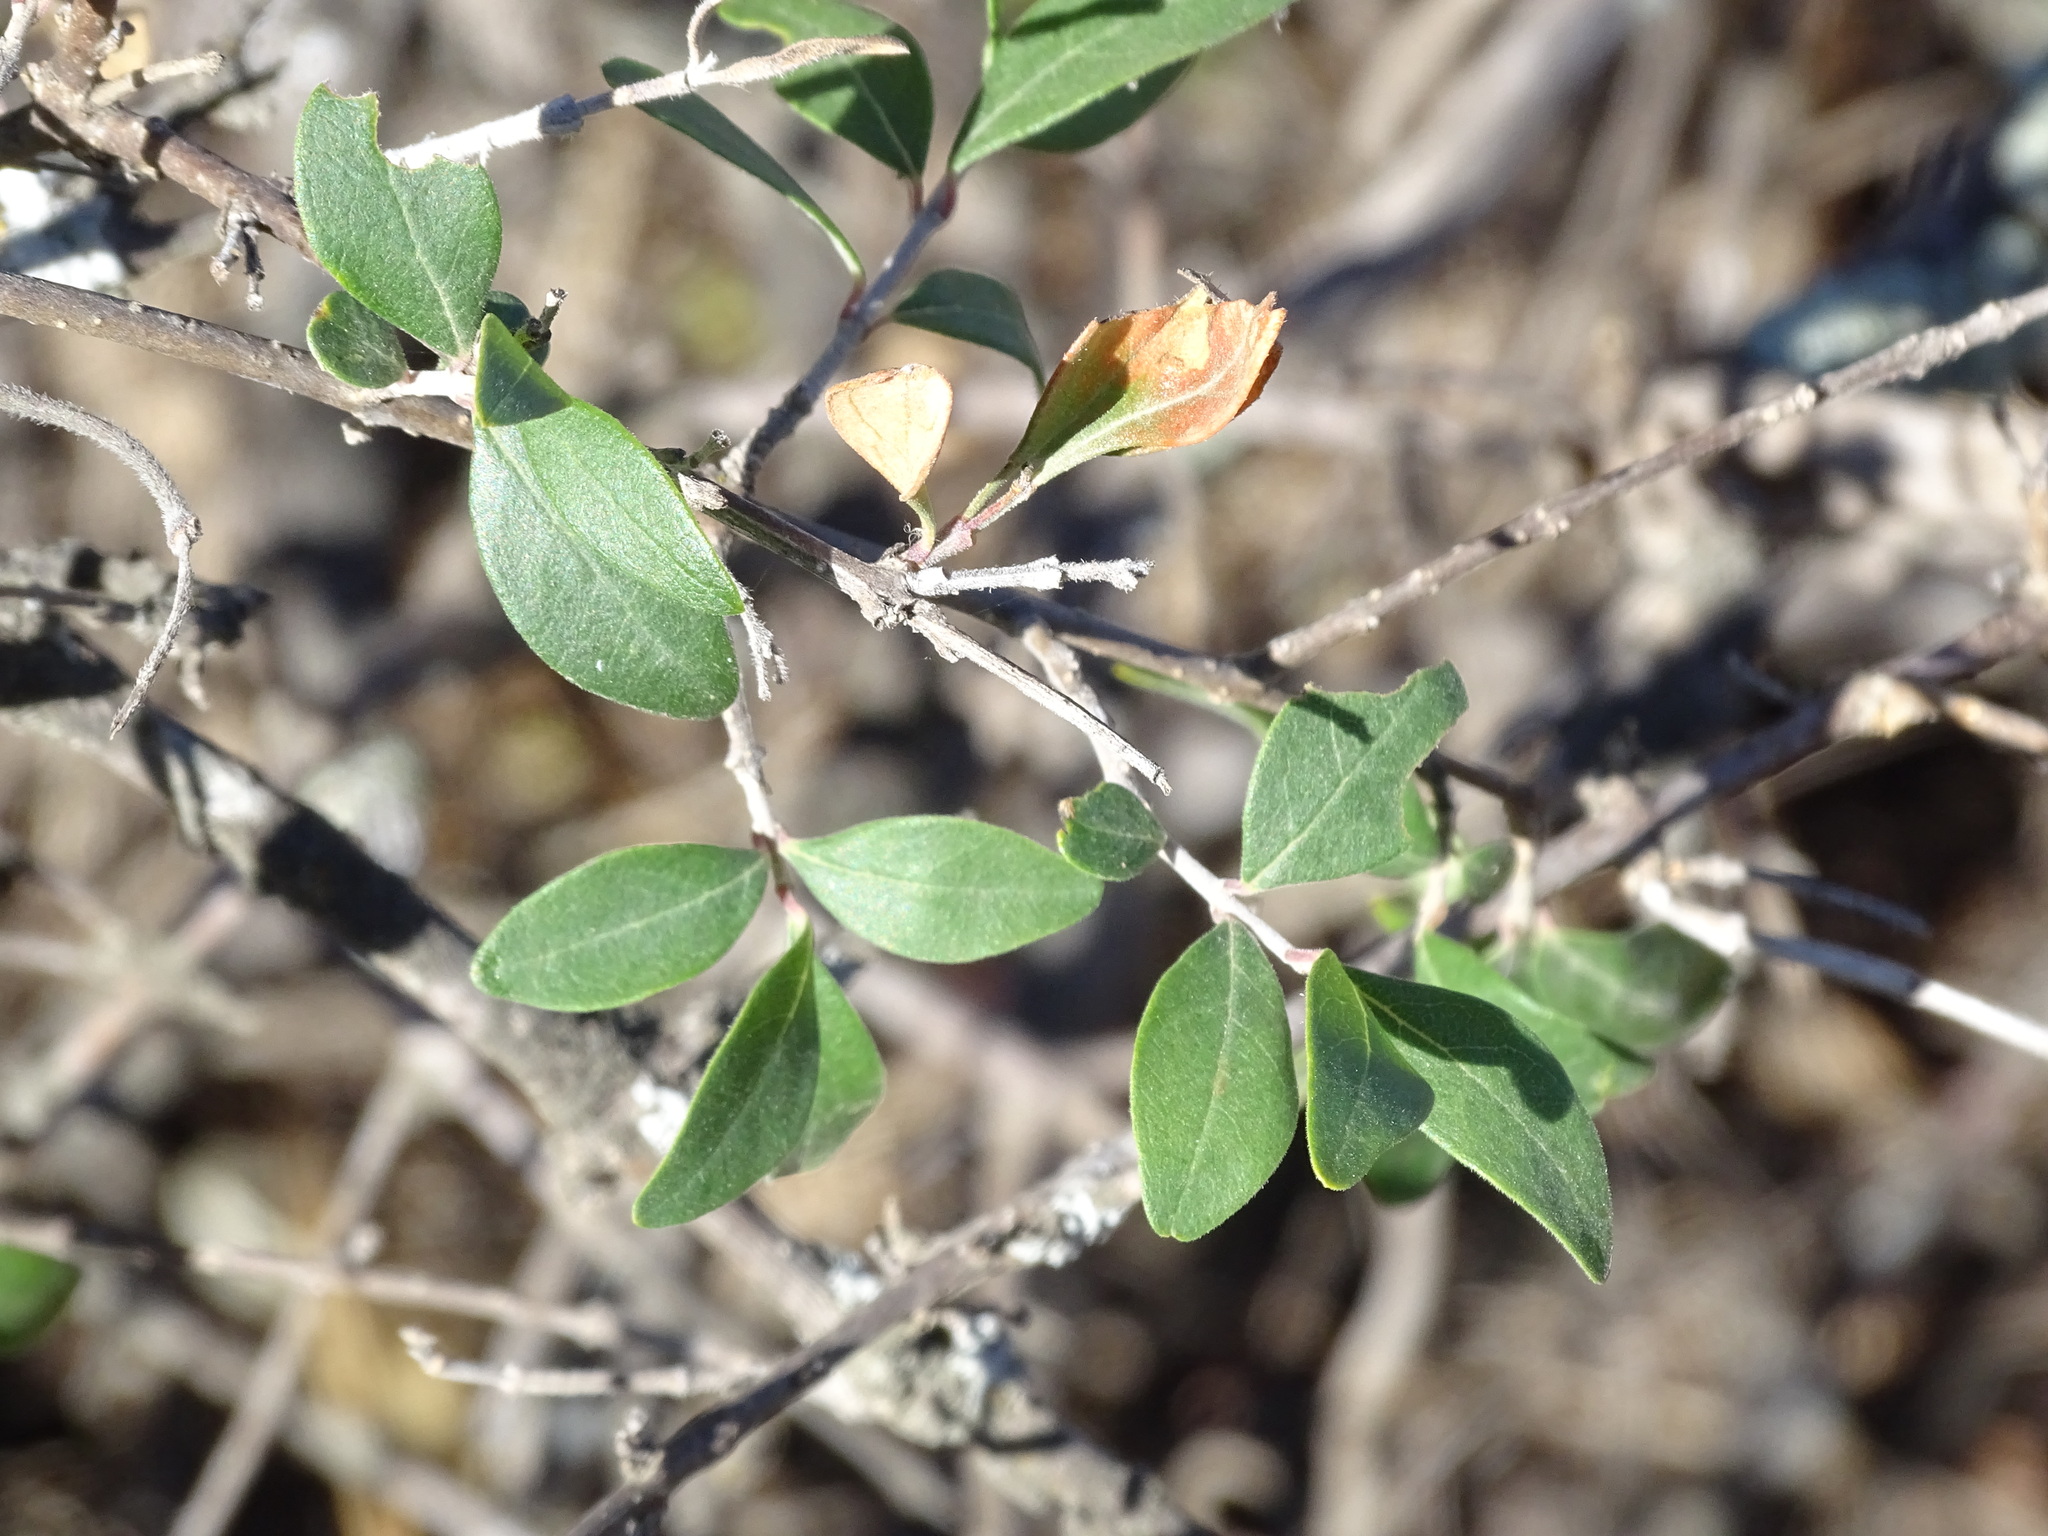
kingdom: Plantae
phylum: Tracheophyta
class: Magnoliopsida
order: Lamiales
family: Oleaceae
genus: Forestiera
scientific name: Forestiera durangensis
